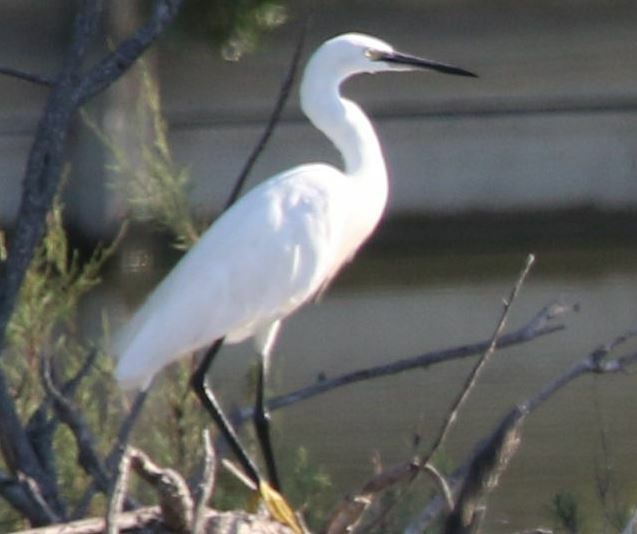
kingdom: Animalia
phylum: Chordata
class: Aves
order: Pelecaniformes
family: Ardeidae
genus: Egretta
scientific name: Egretta garzetta
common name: Little egret
